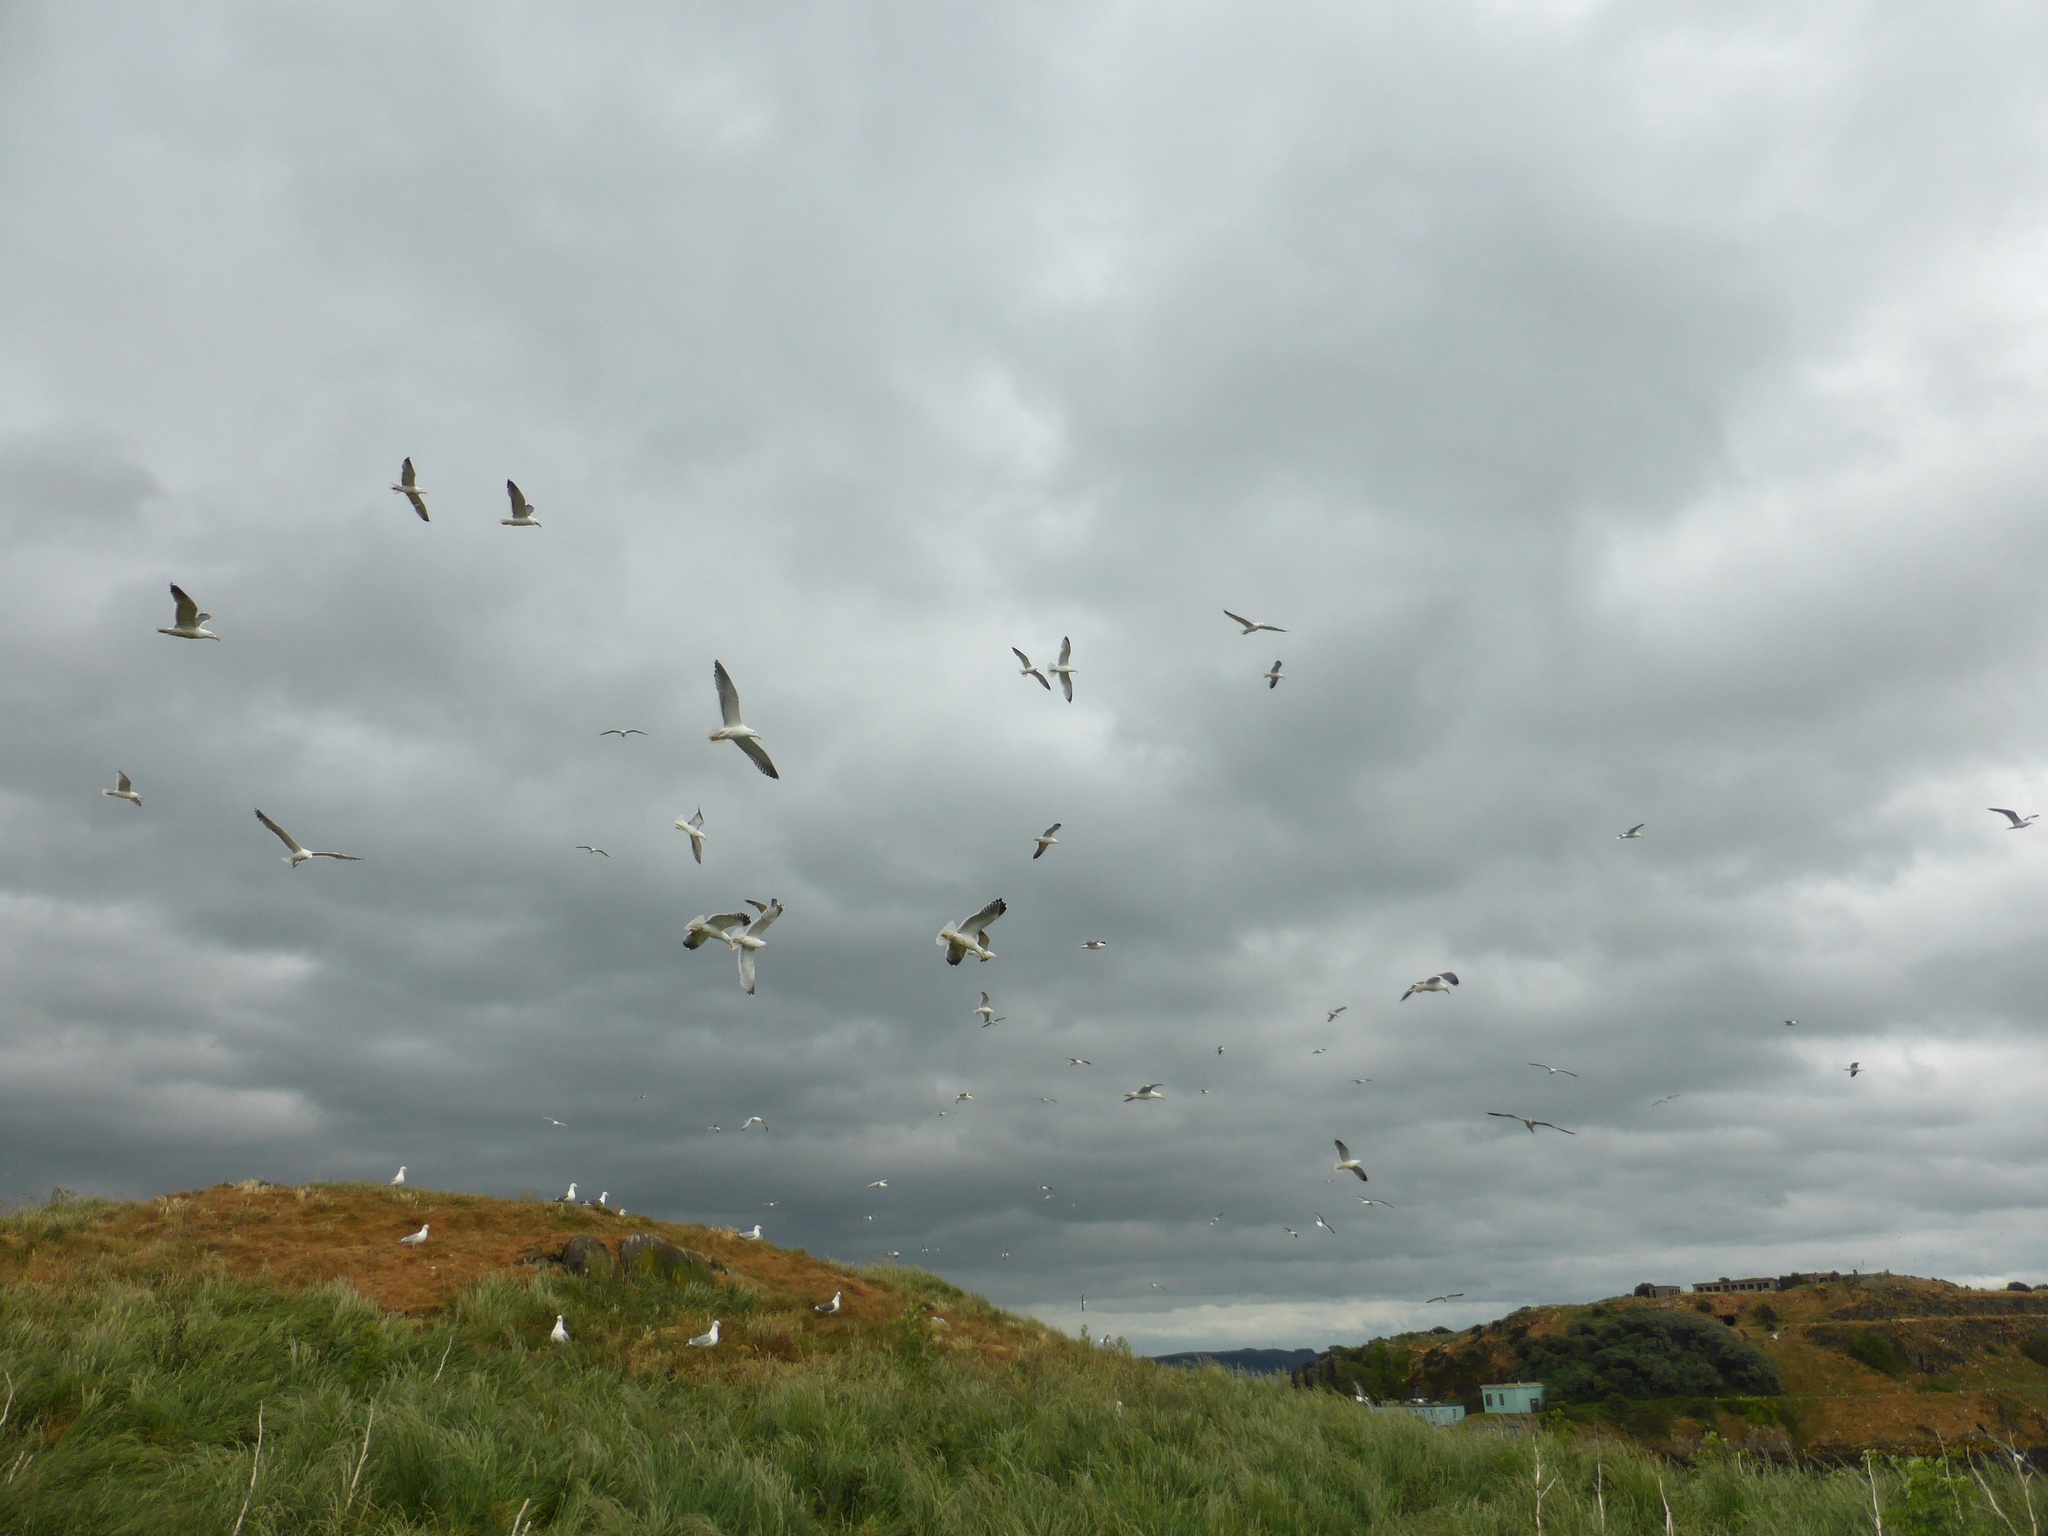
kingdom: Animalia
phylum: Chordata
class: Aves
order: Charadriiformes
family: Laridae
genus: Larus
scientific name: Larus fuscus
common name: Lesser black-backed gull
